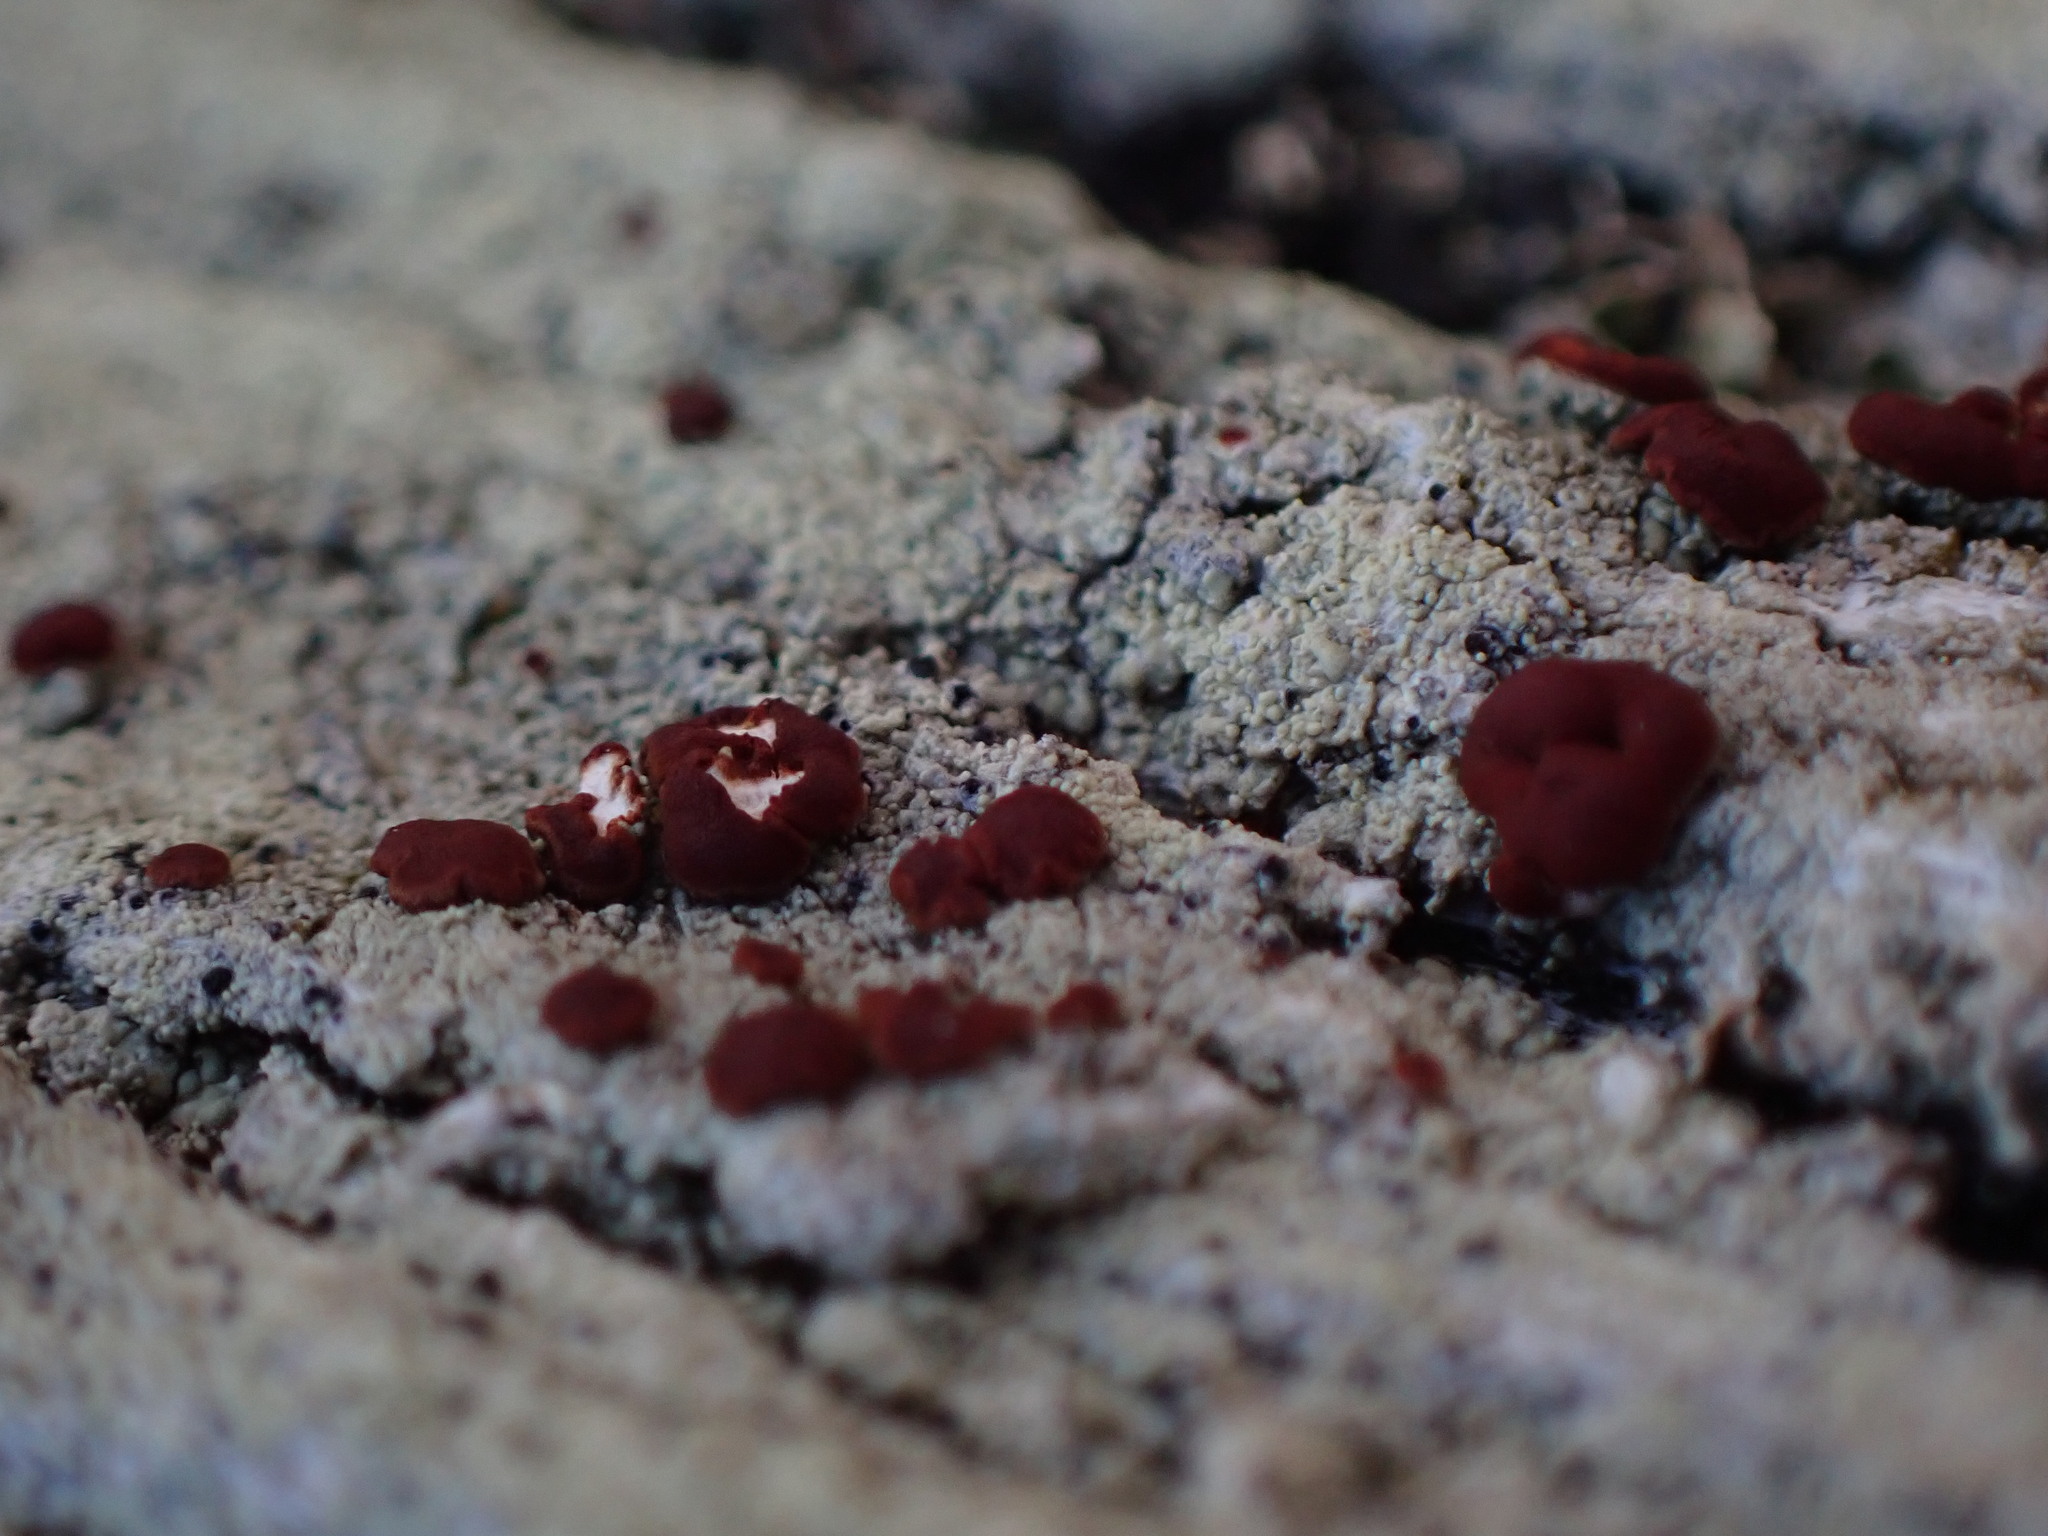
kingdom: Fungi
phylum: Ascomycota
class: Lecanoromycetes
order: Lecanorales
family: Ramalinaceae
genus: Bilimbia
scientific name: Bilimbia rubricosa
